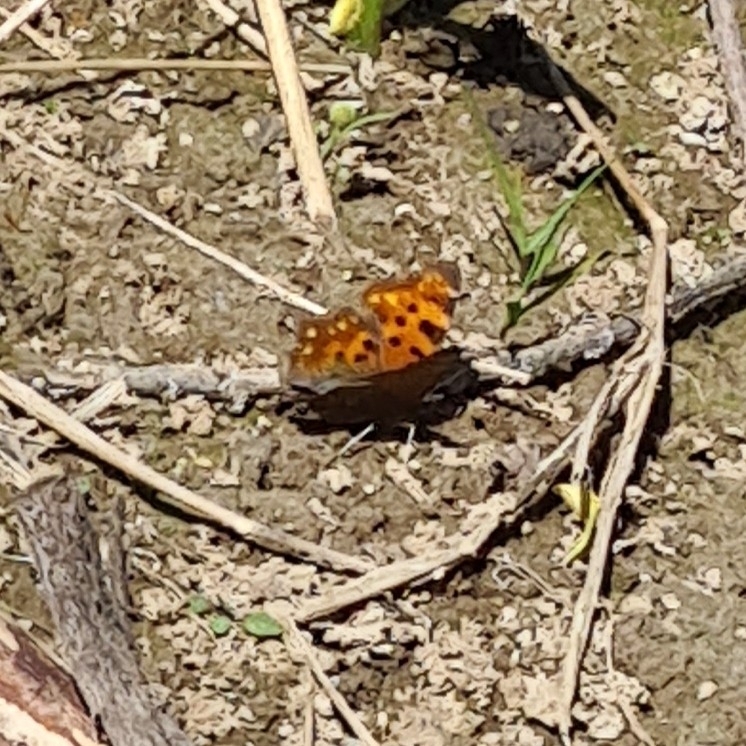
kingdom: Animalia
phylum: Arthropoda
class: Insecta
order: Lepidoptera
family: Nymphalidae
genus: Polygonia
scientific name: Polygonia c-album
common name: Comma
